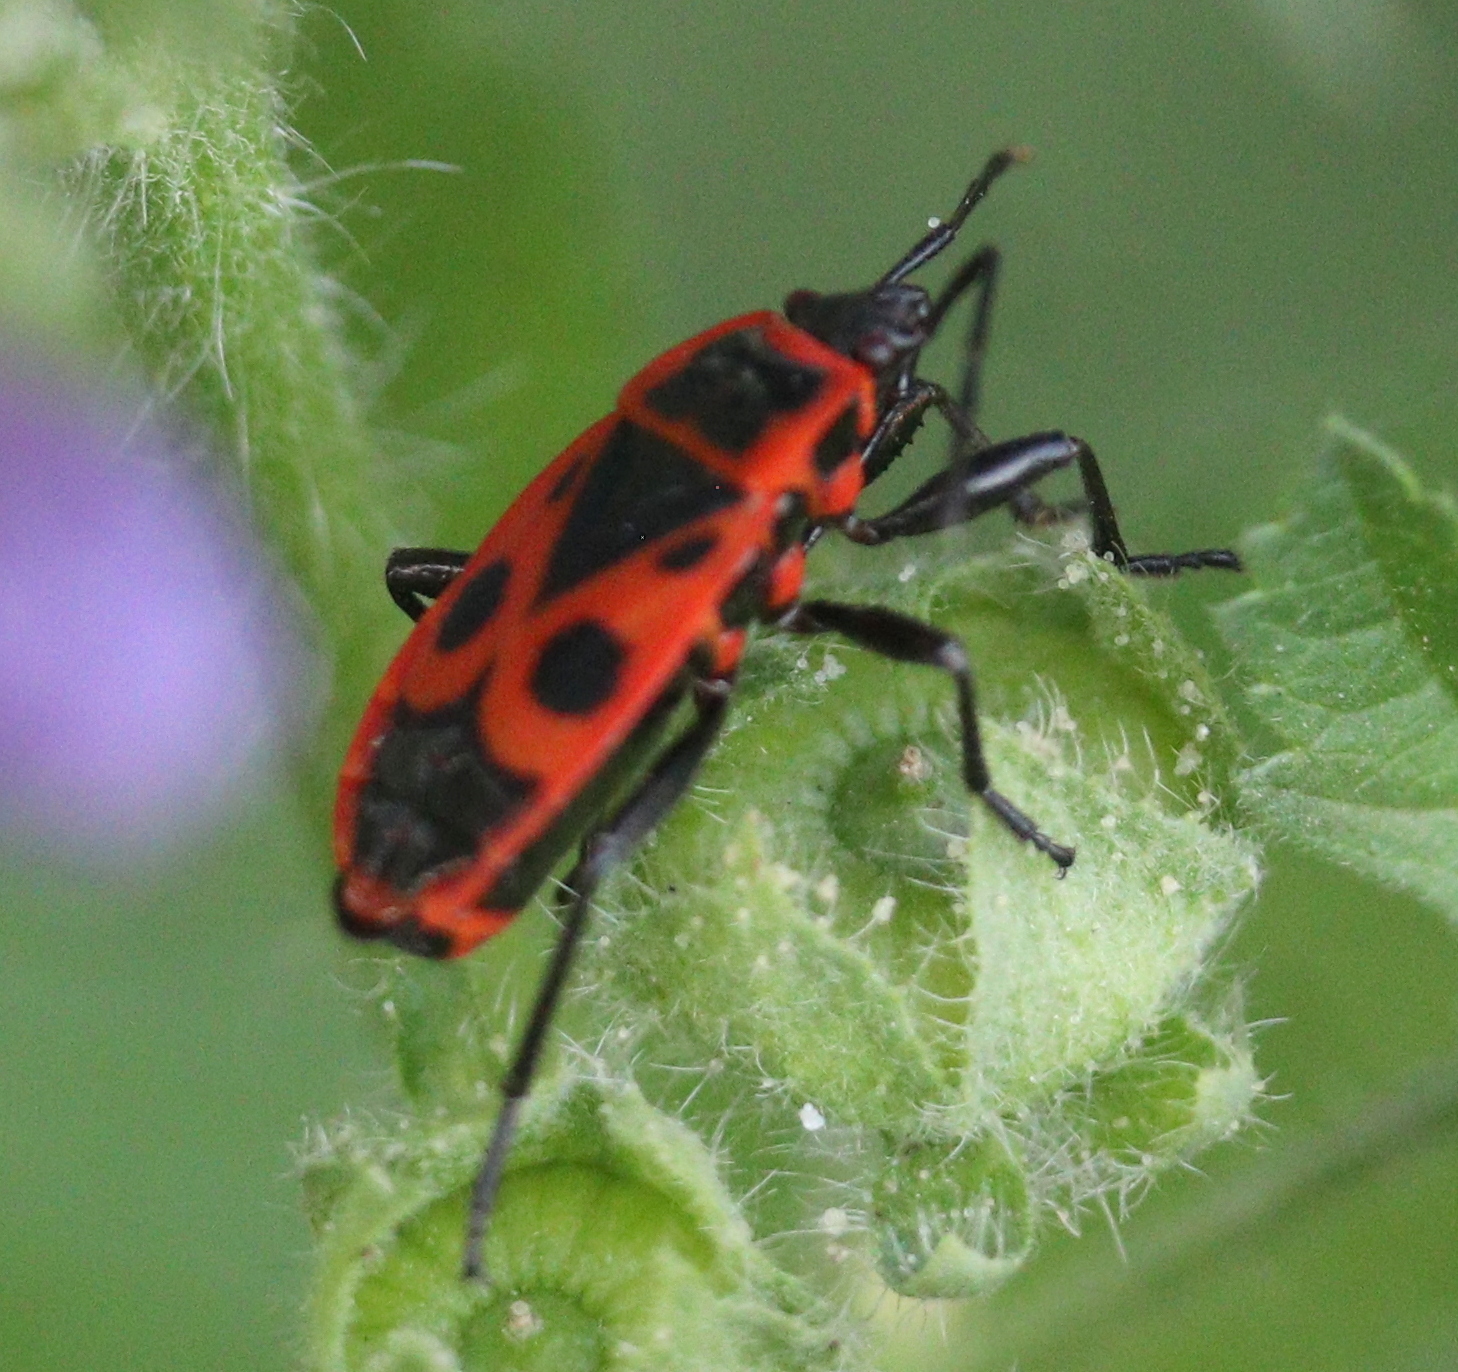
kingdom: Animalia
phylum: Arthropoda
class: Insecta
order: Hemiptera
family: Pyrrhocoridae
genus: Pyrrhocoris
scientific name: Pyrrhocoris apterus
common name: Firebug
